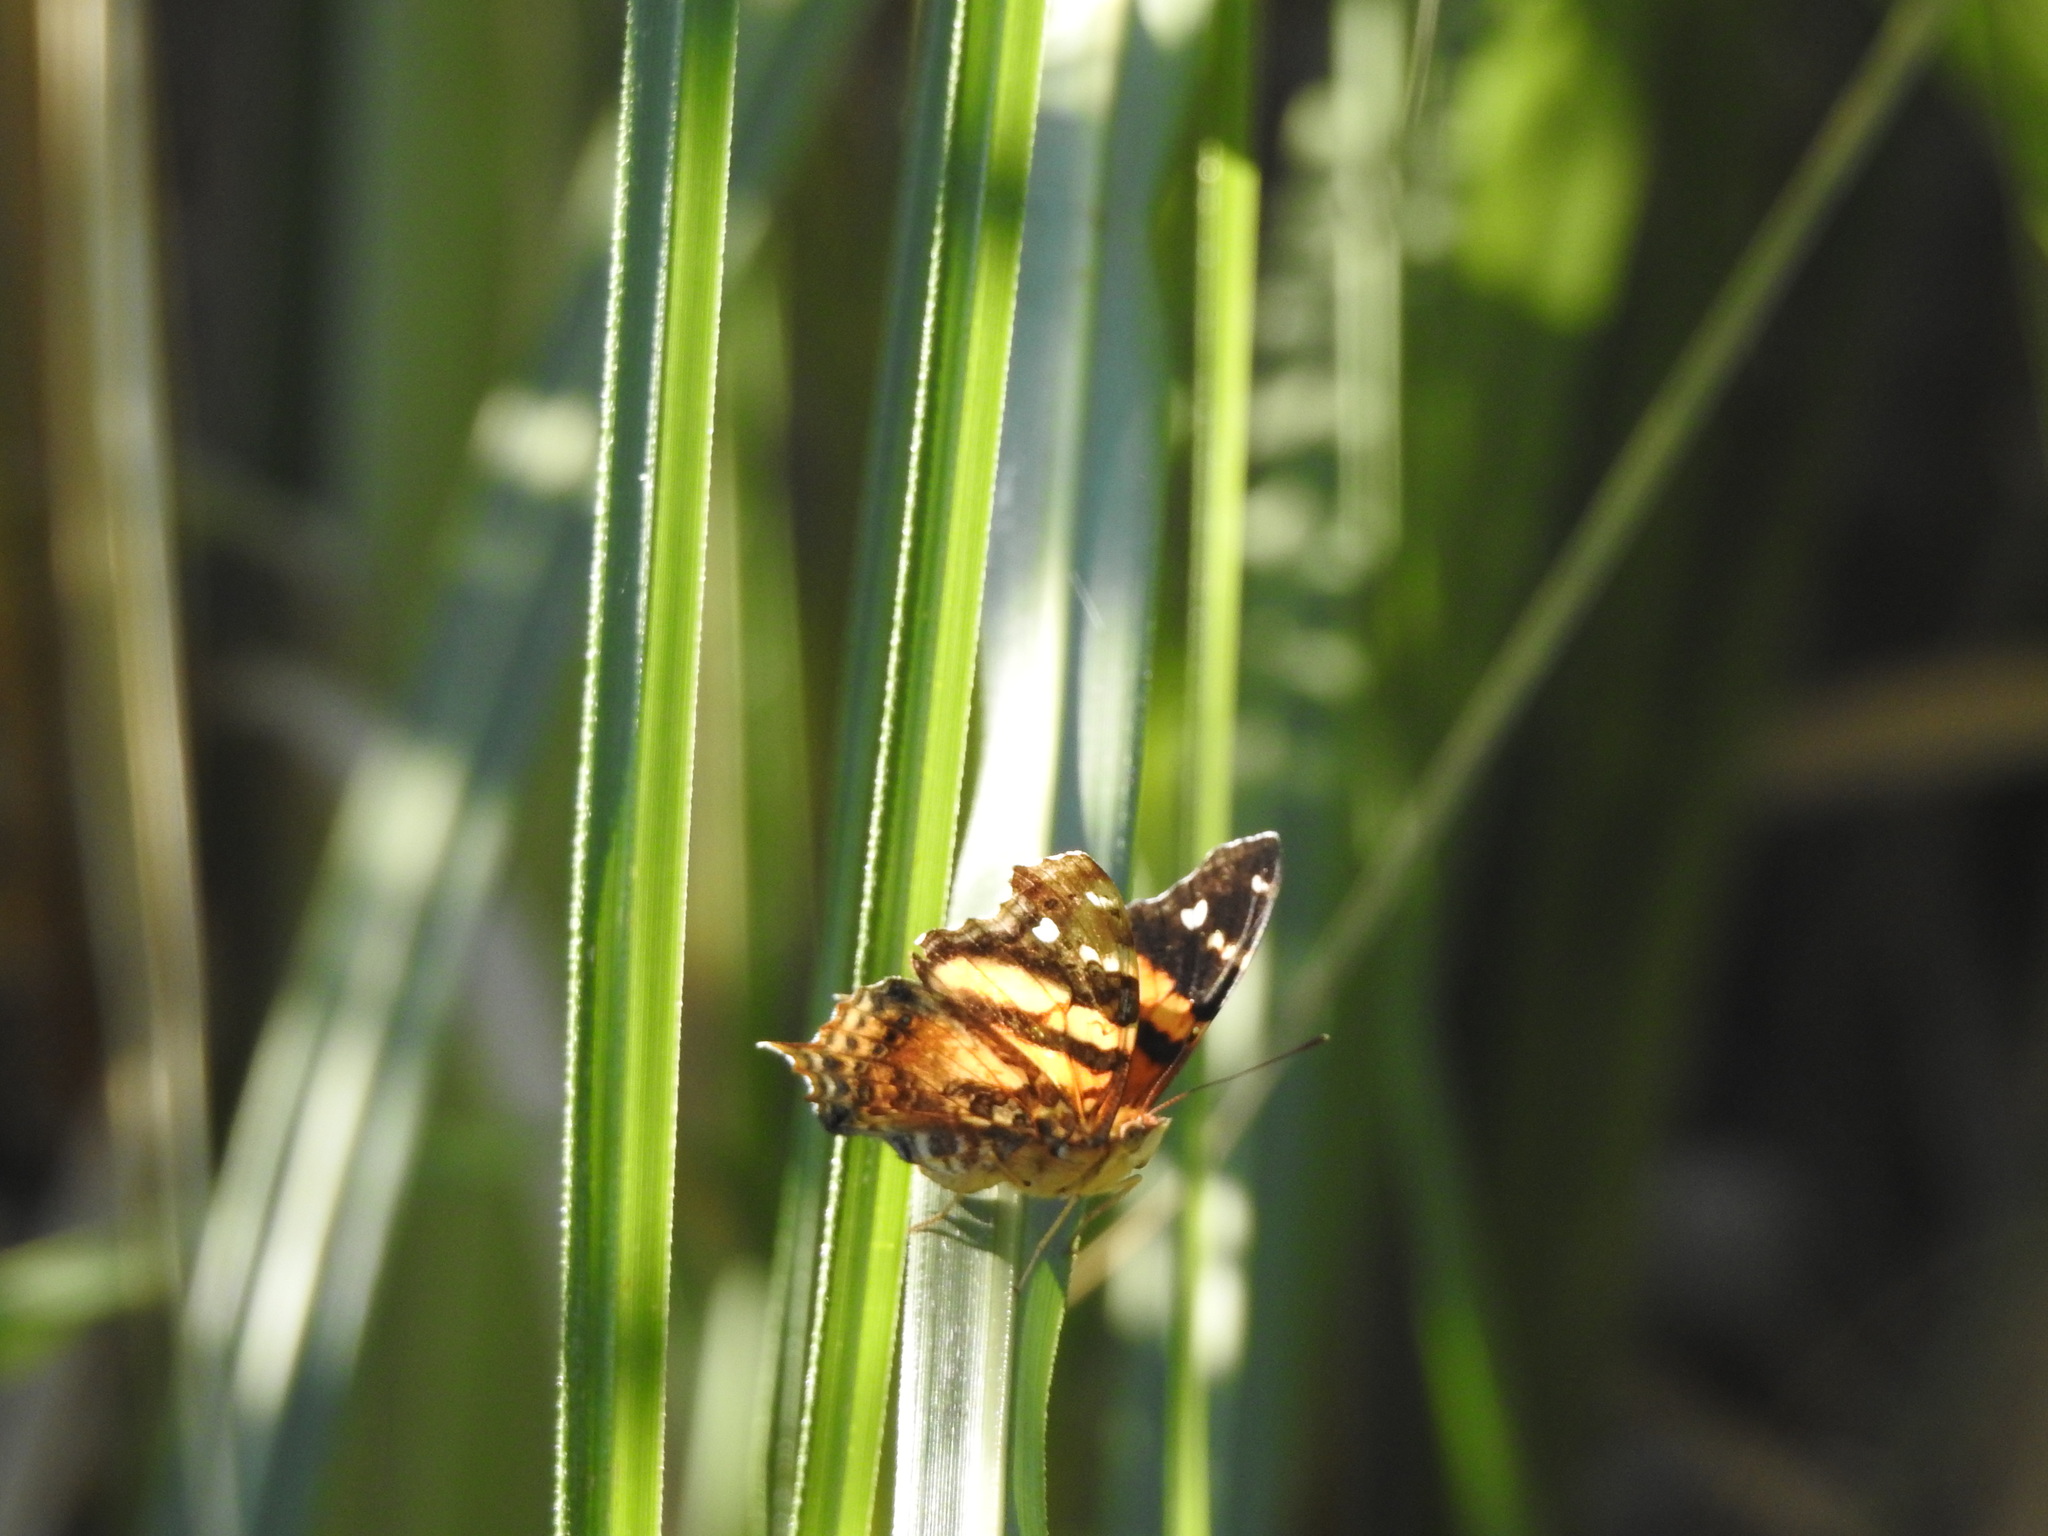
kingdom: Animalia
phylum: Arthropoda
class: Insecta
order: Lepidoptera
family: Nymphalidae
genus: Hypanartia
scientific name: Hypanartia bella
